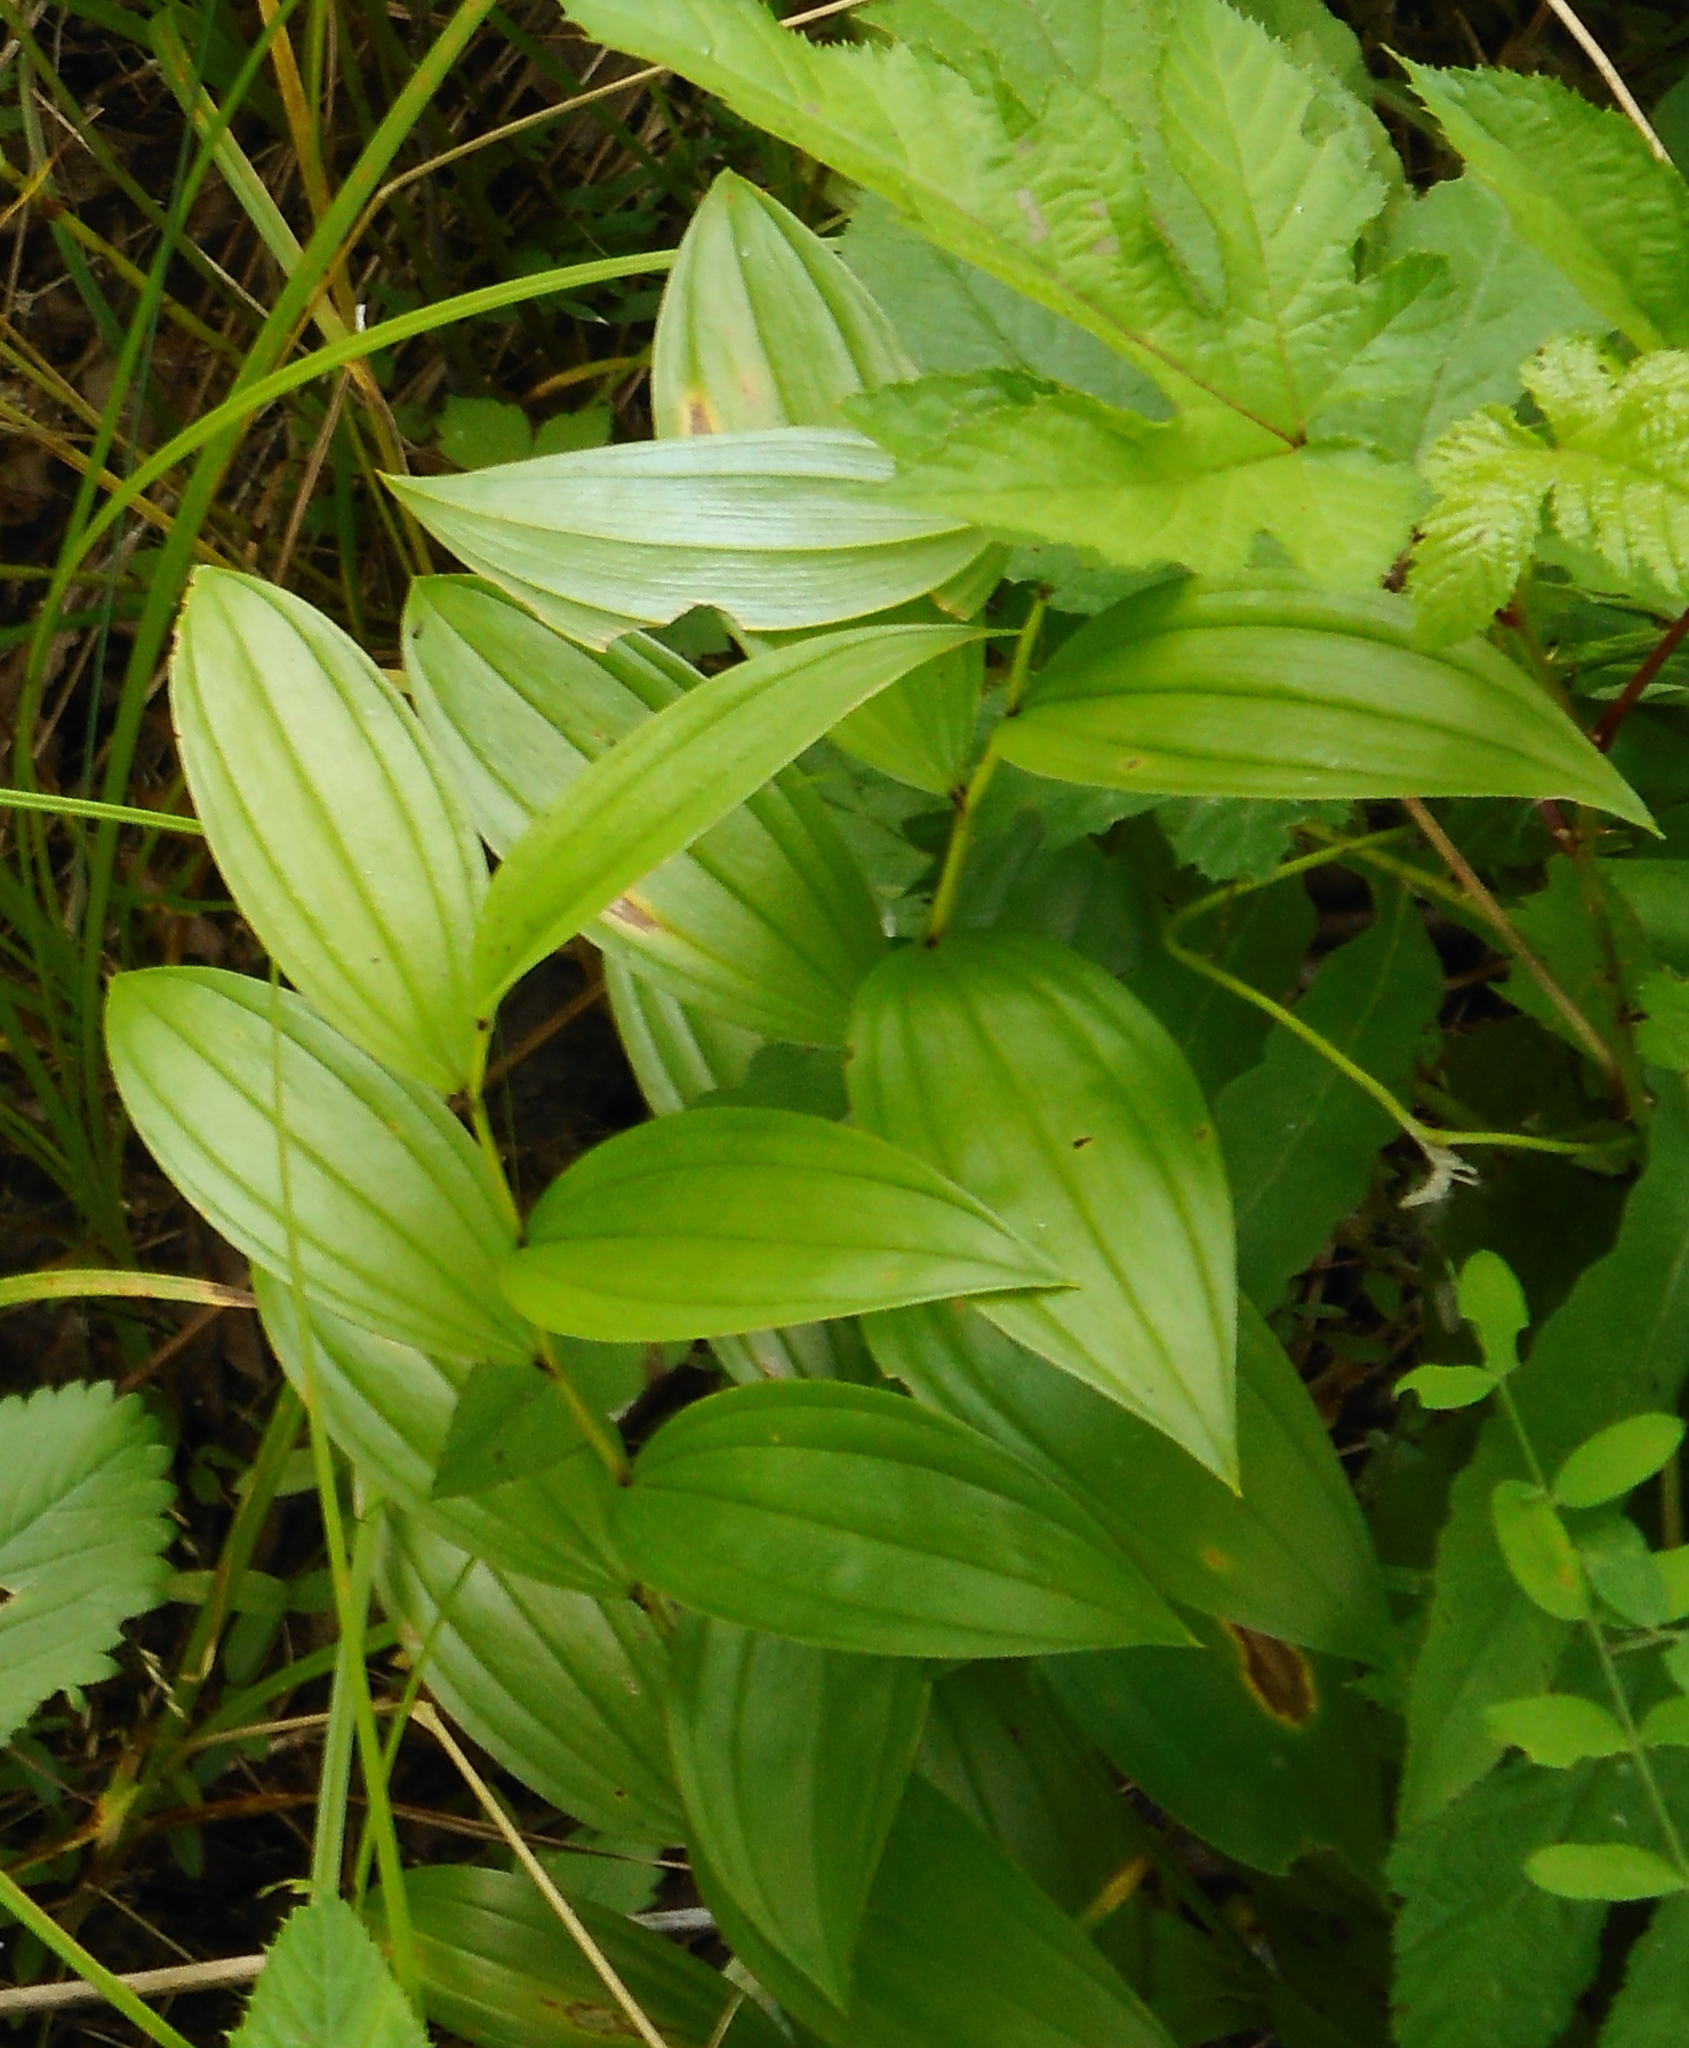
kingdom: Plantae
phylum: Tracheophyta
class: Liliopsida
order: Liliales
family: Colchicaceae
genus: Disporum
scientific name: Disporum viridescens
